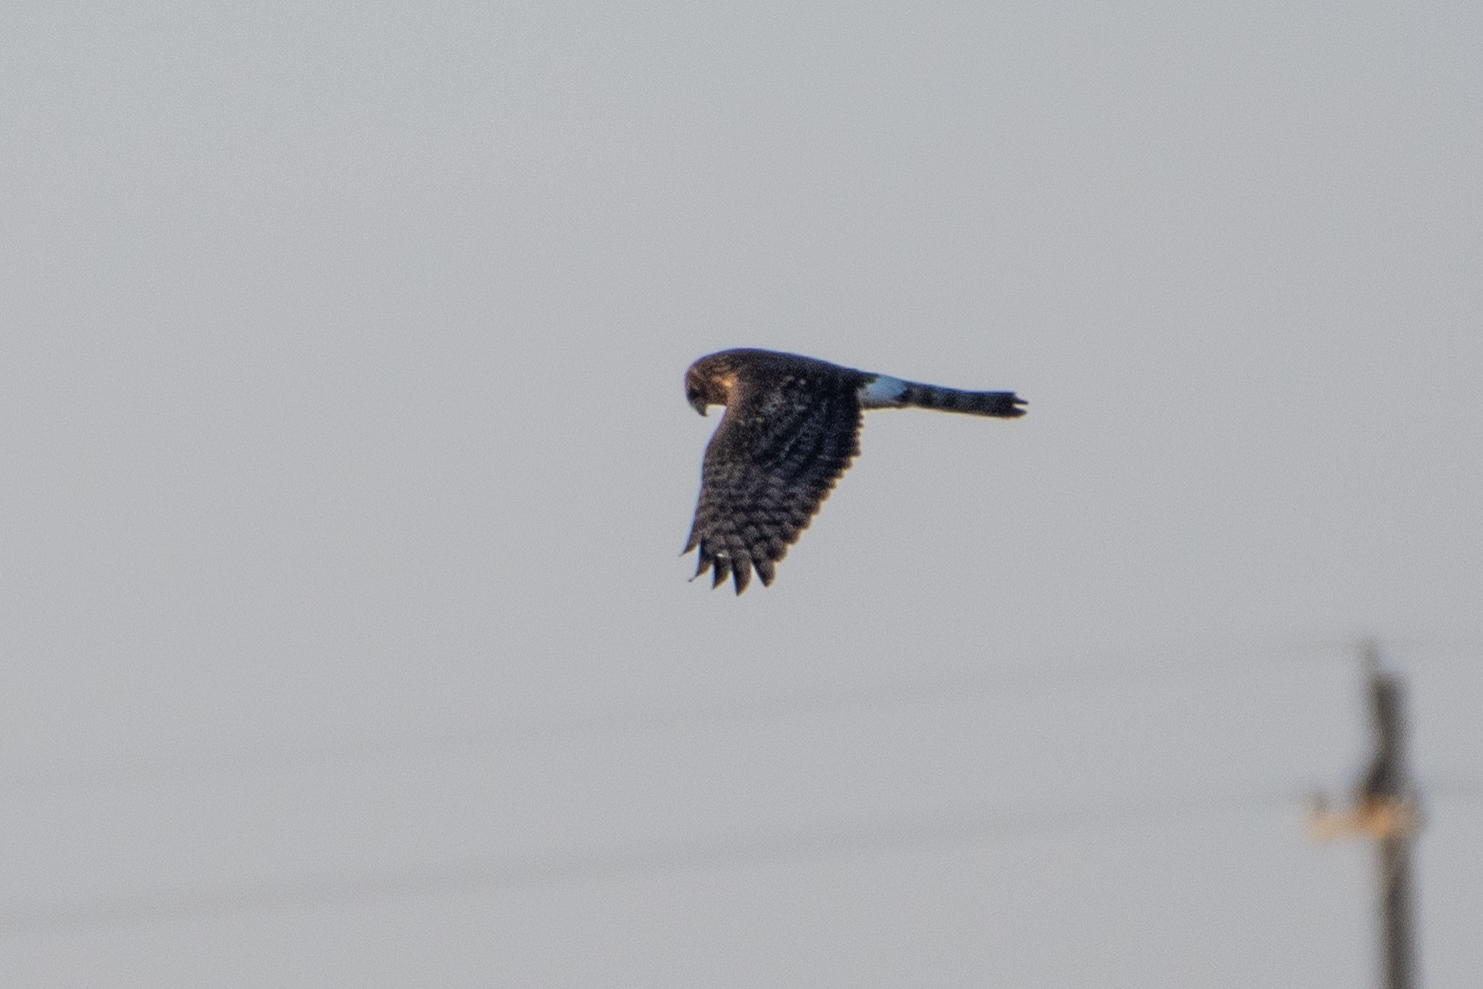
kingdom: Animalia
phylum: Chordata
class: Aves
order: Accipitriformes
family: Accipitridae
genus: Circus
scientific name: Circus cyaneus
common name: Hen harrier
